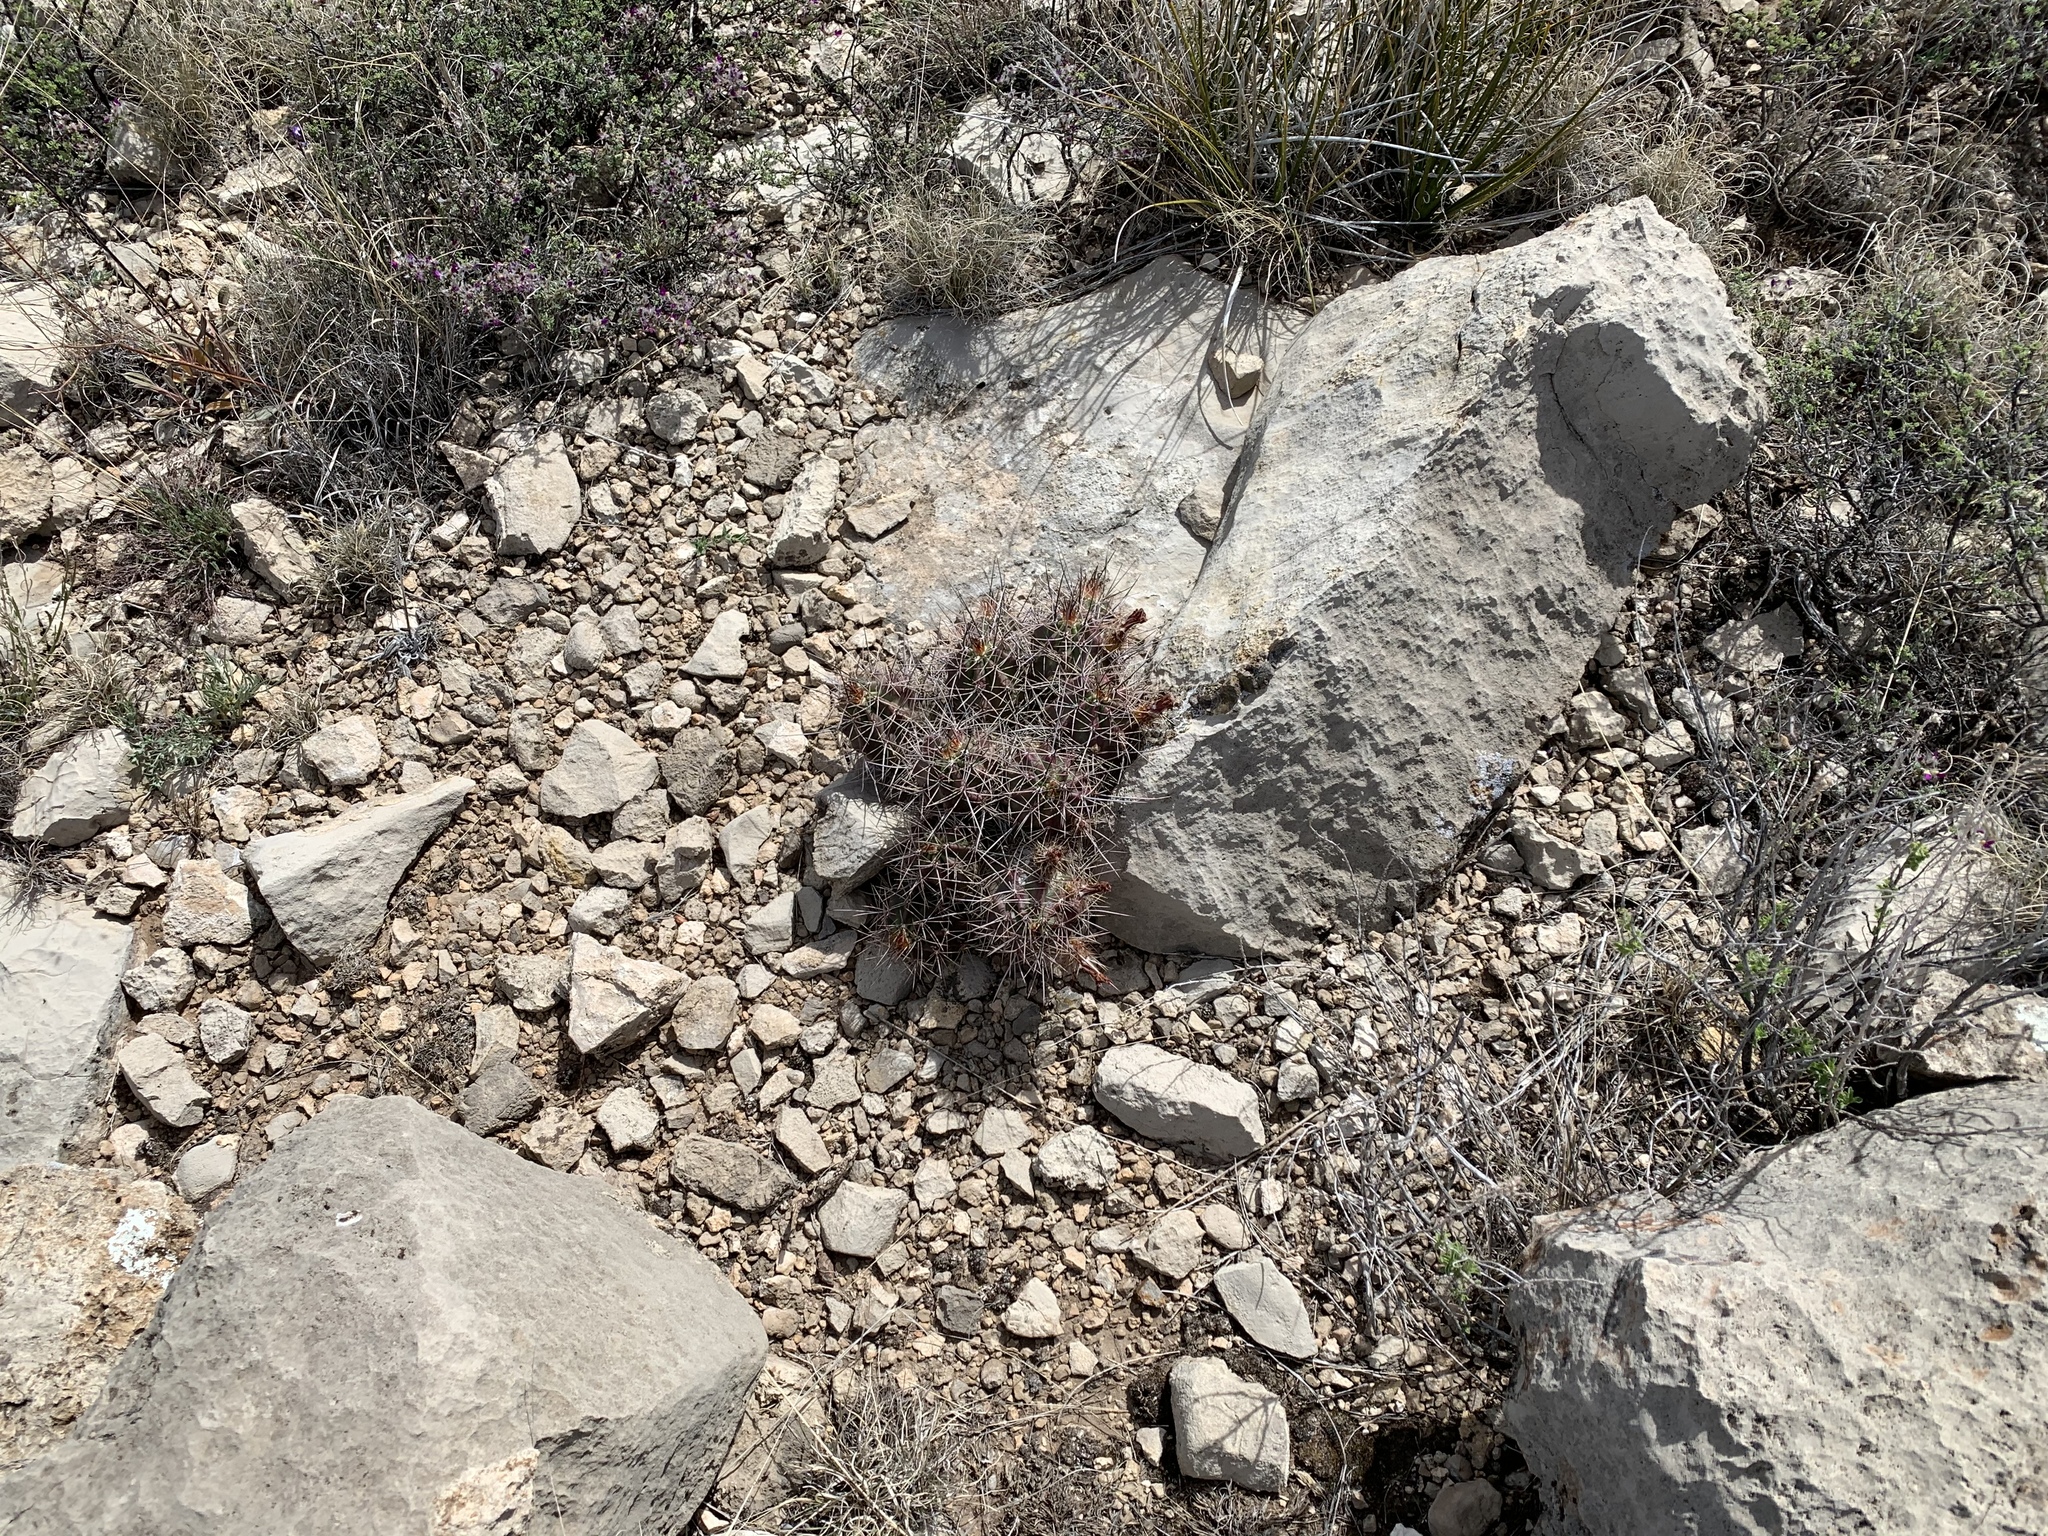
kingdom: Plantae
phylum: Tracheophyta
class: Magnoliopsida
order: Caryophyllales
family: Cactaceae
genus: Echinocereus
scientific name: Echinocereus coccineus
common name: Scarlet hedgehog cactus
